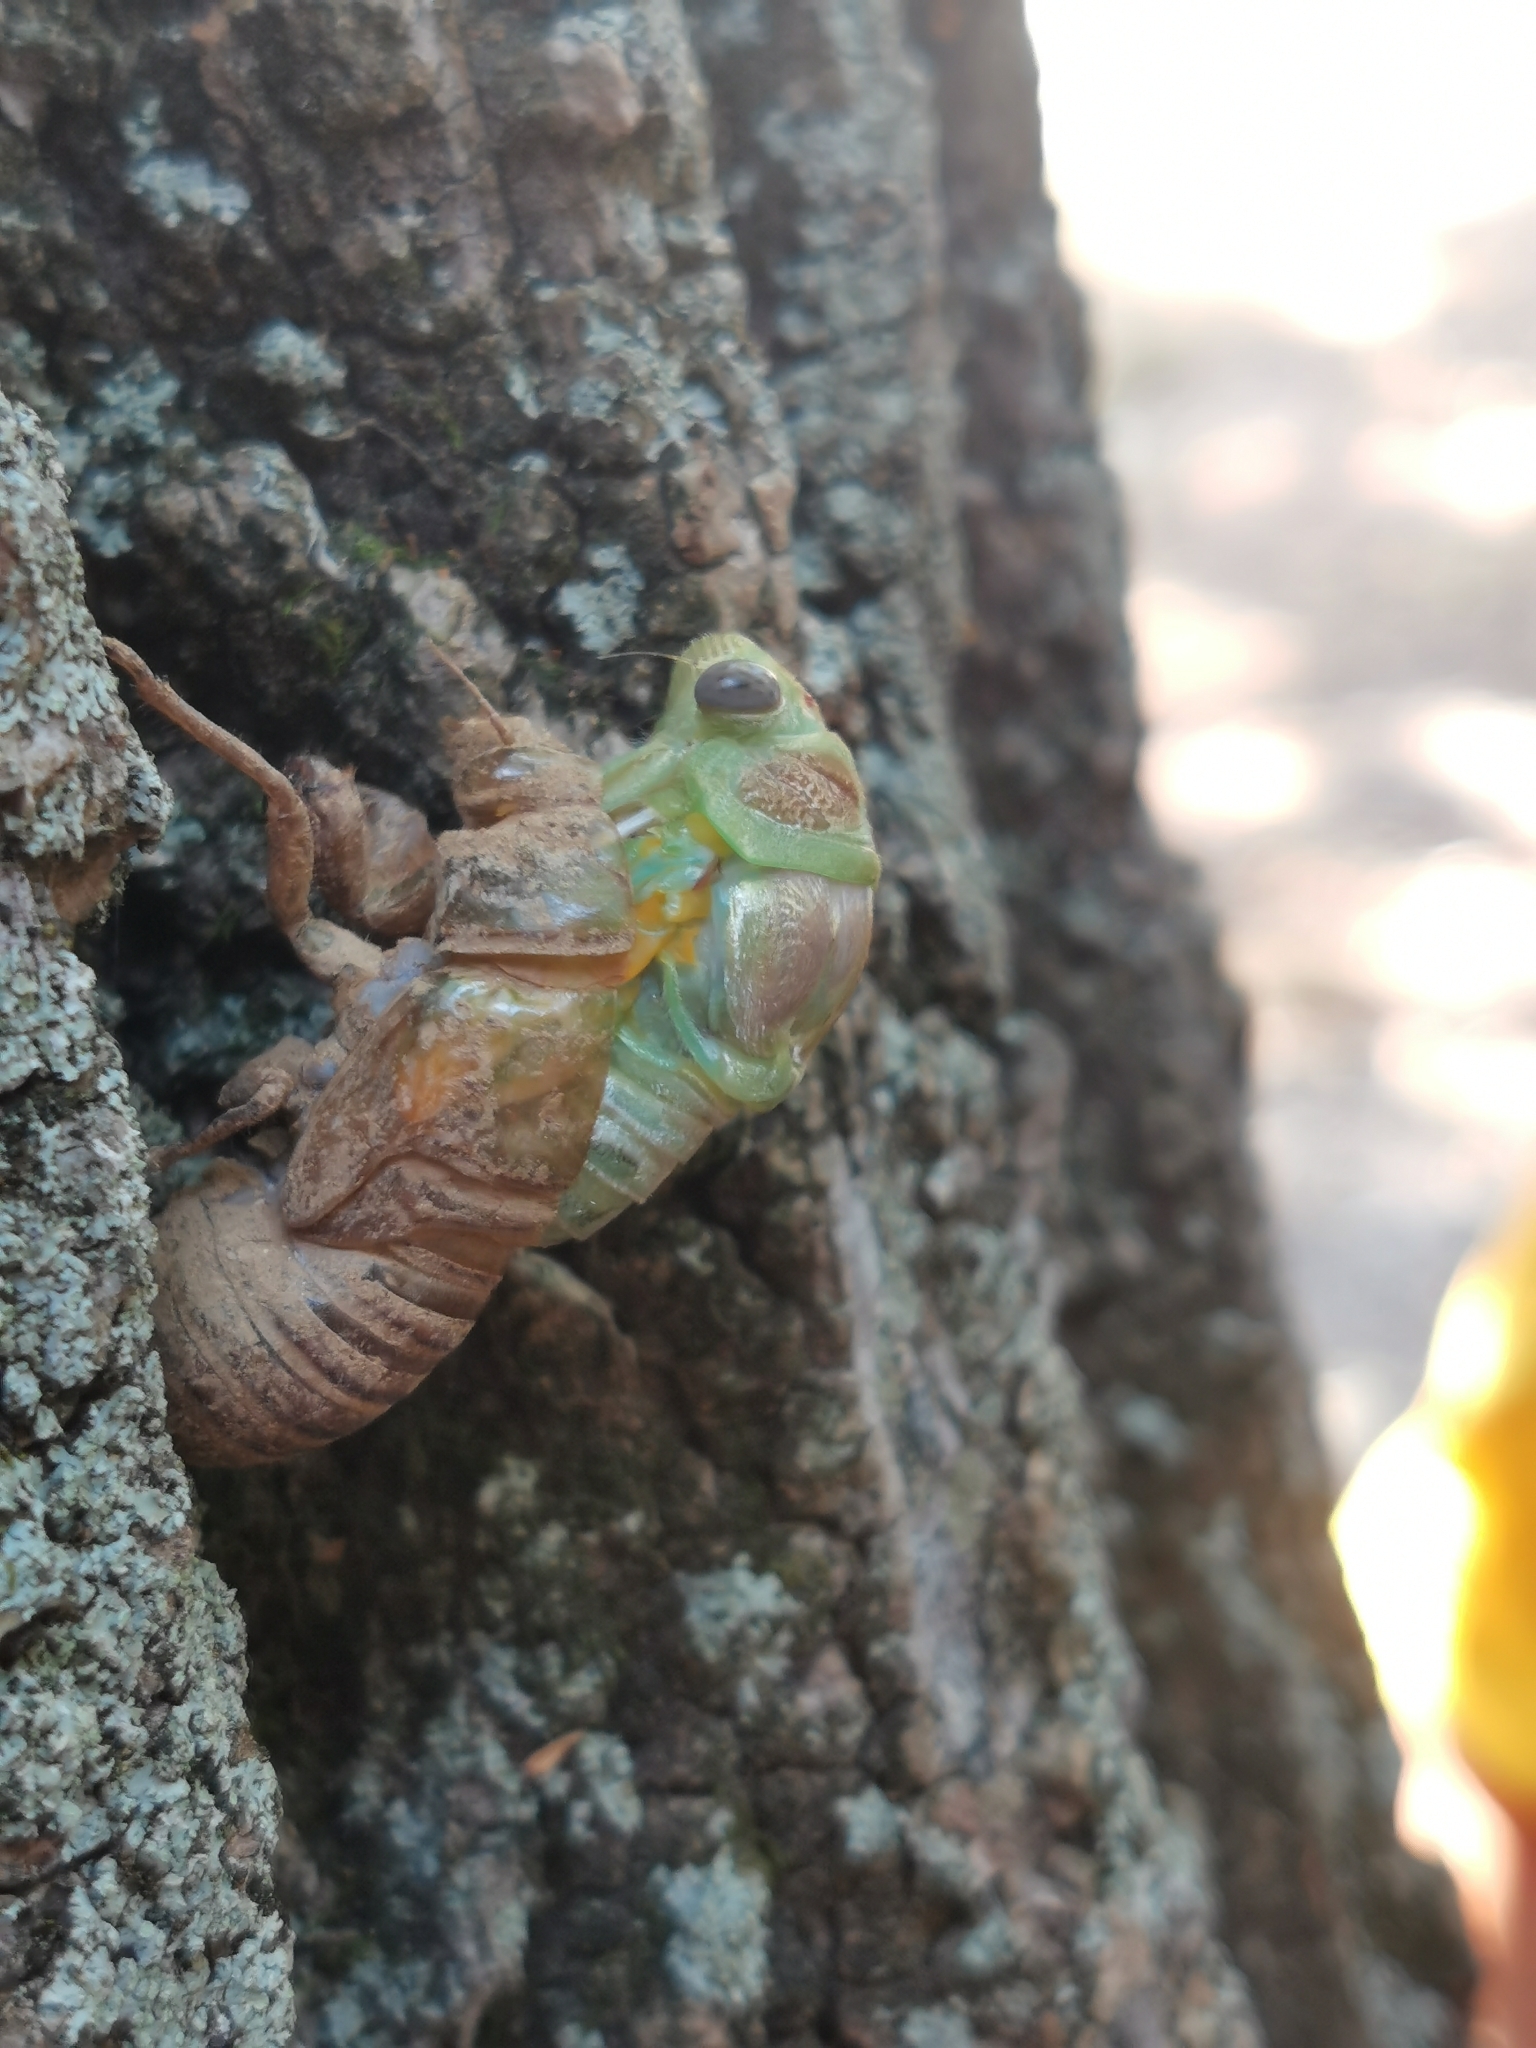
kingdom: Animalia
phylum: Arthropoda
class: Insecta
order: Hemiptera
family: Cicadidae
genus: Lyristes
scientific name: Lyristes plebejus
